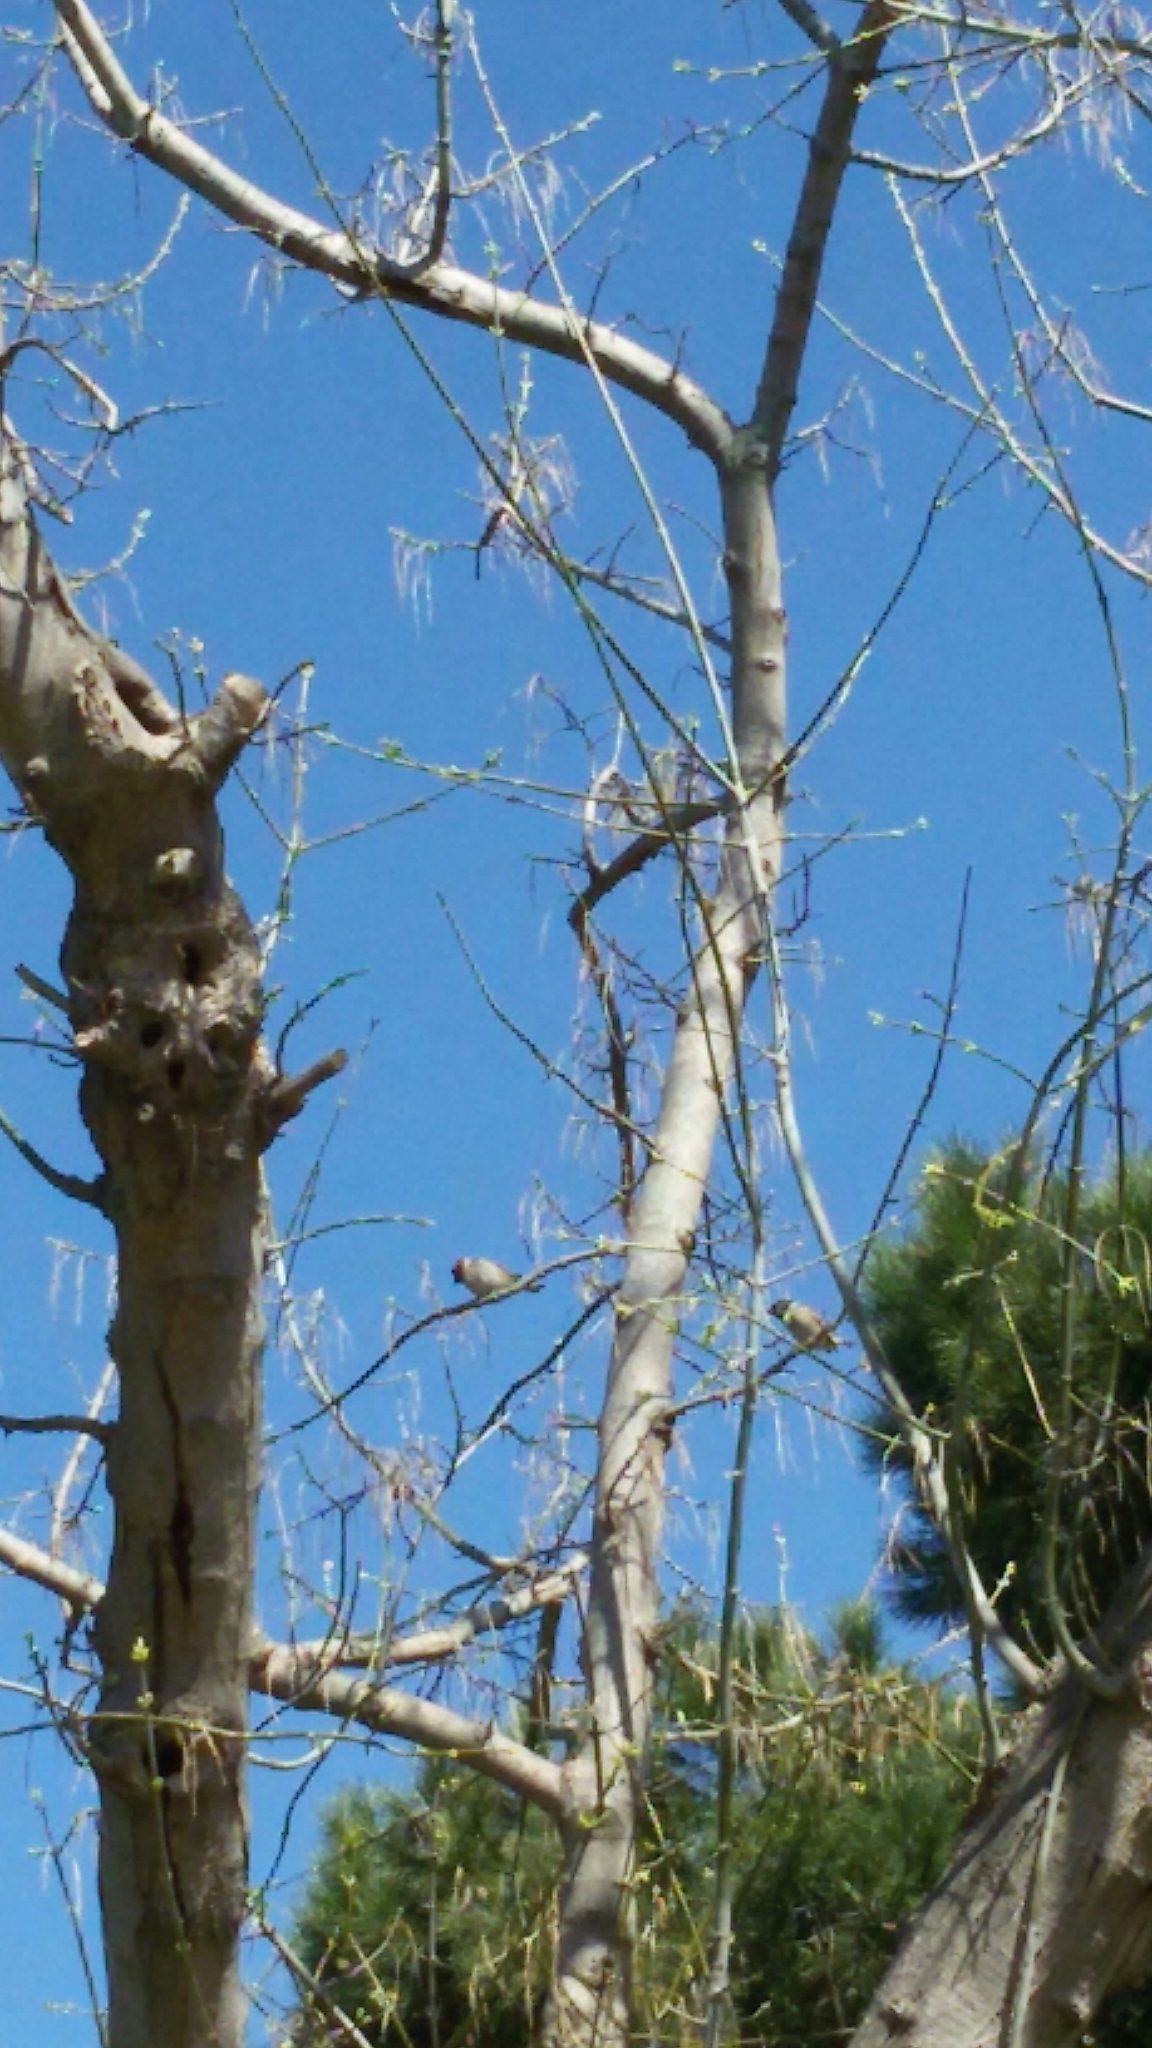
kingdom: Animalia
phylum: Chordata
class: Aves
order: Passeriformes
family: Passeridae
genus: Passer
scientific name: Passer montanus
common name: Eurasian tree sparrow
